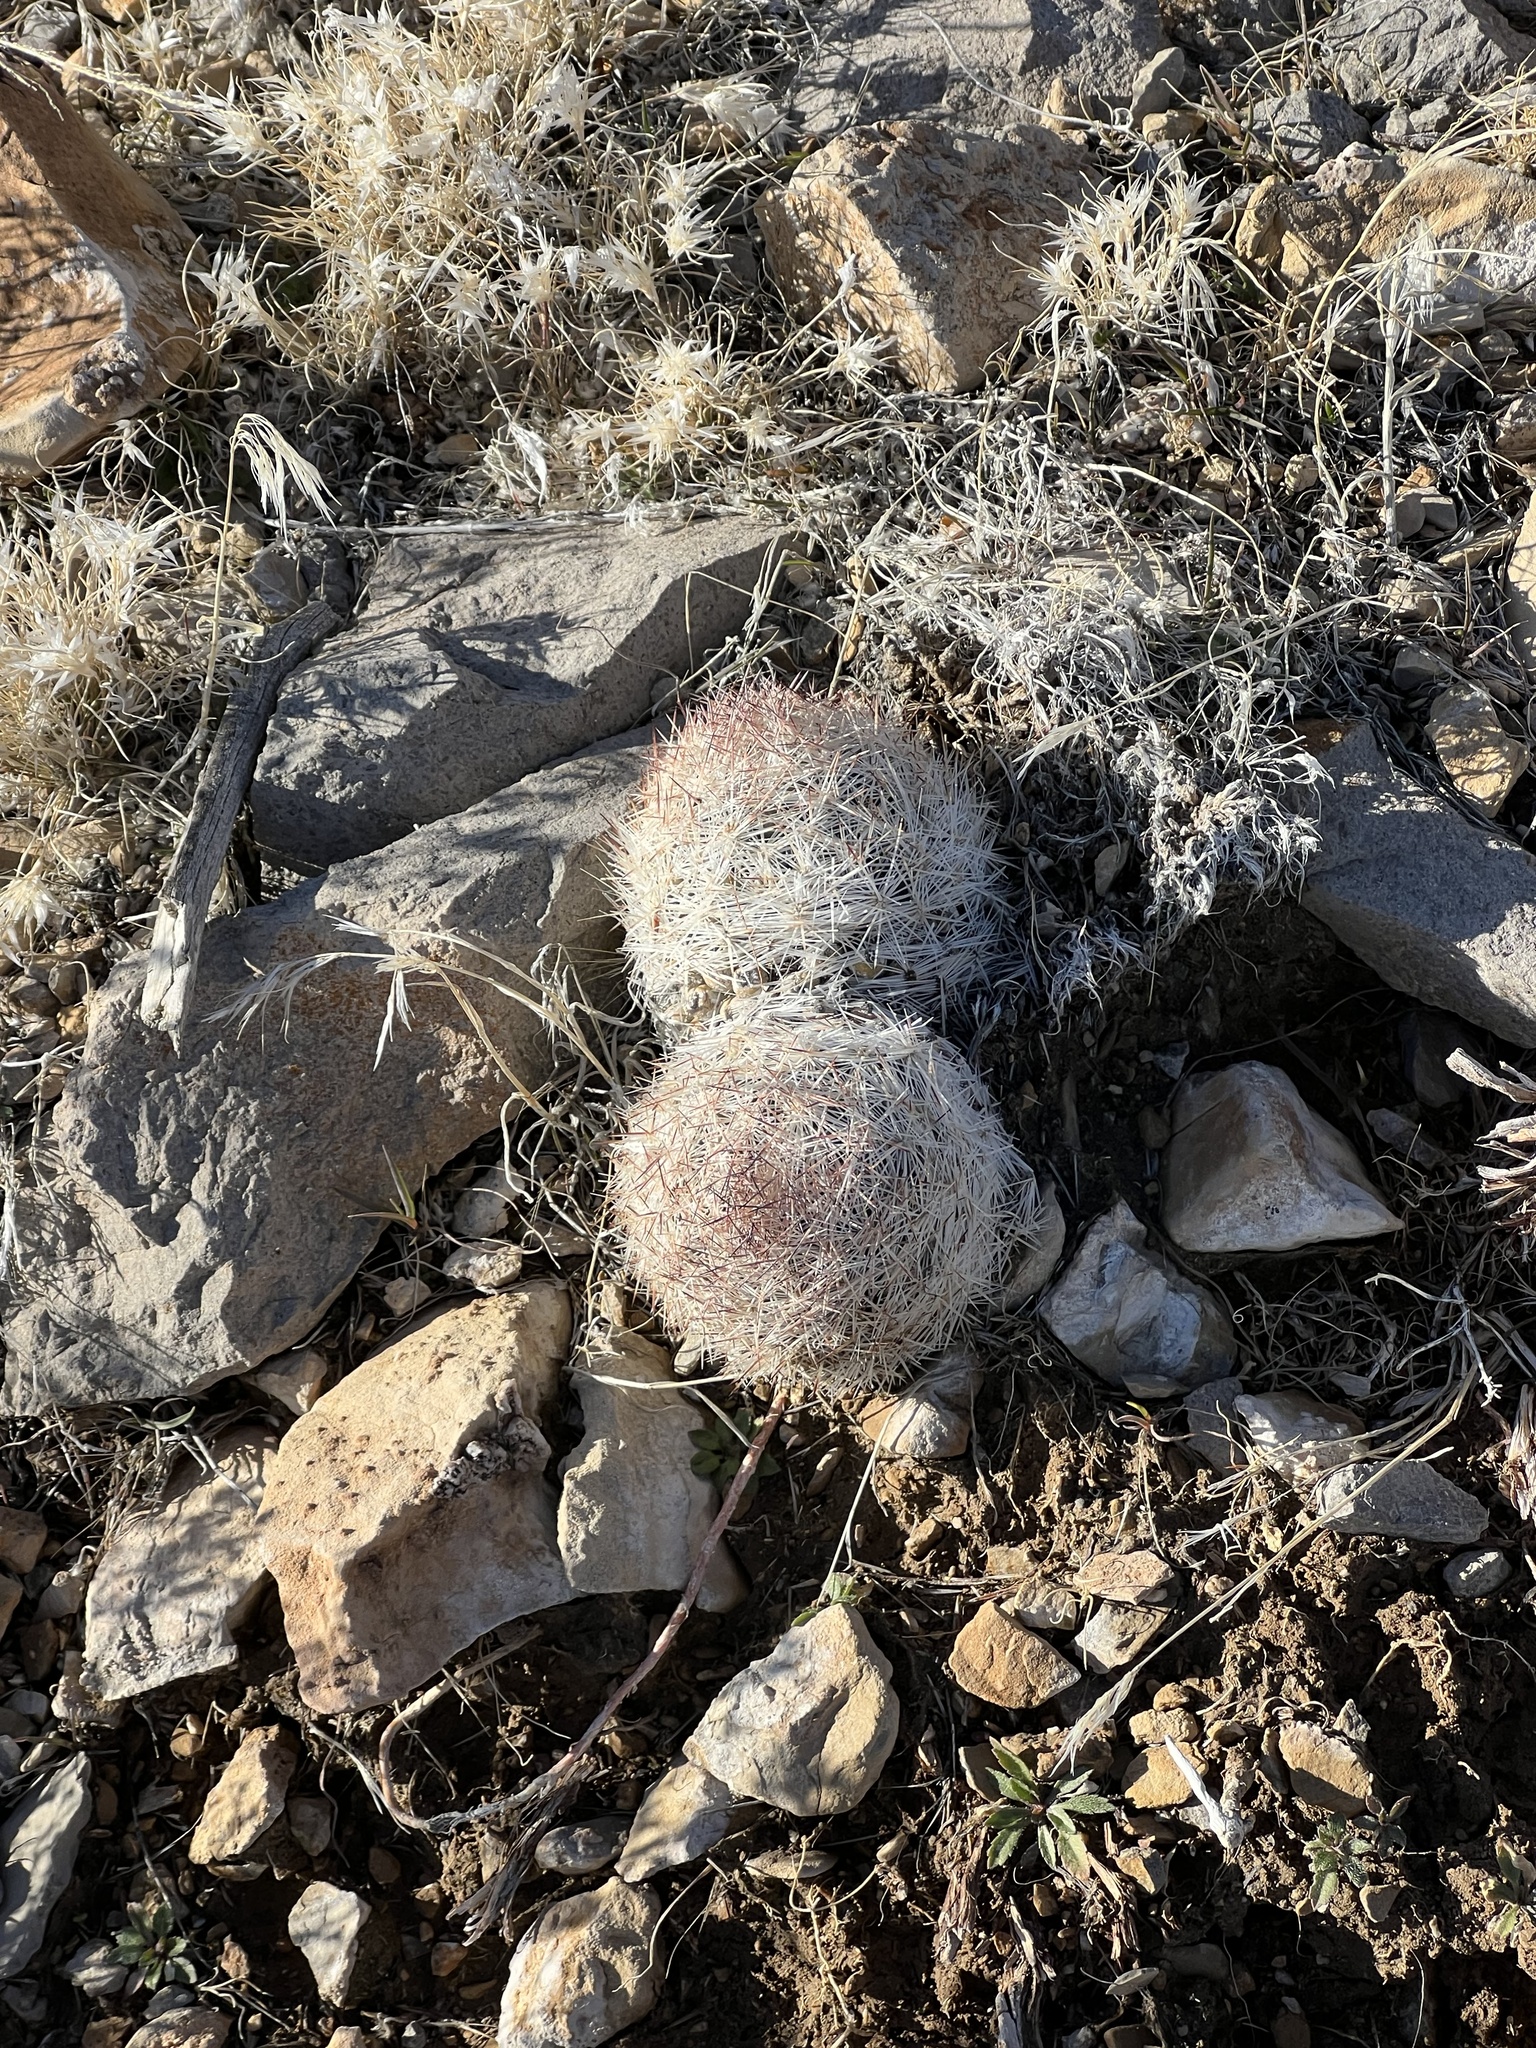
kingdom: Plantae
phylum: Tracheophyta
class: Magnoliopsida
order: Caryophyllales
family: Cactaceae
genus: Pelecyphora
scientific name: Pelecyphora dasyacantha
